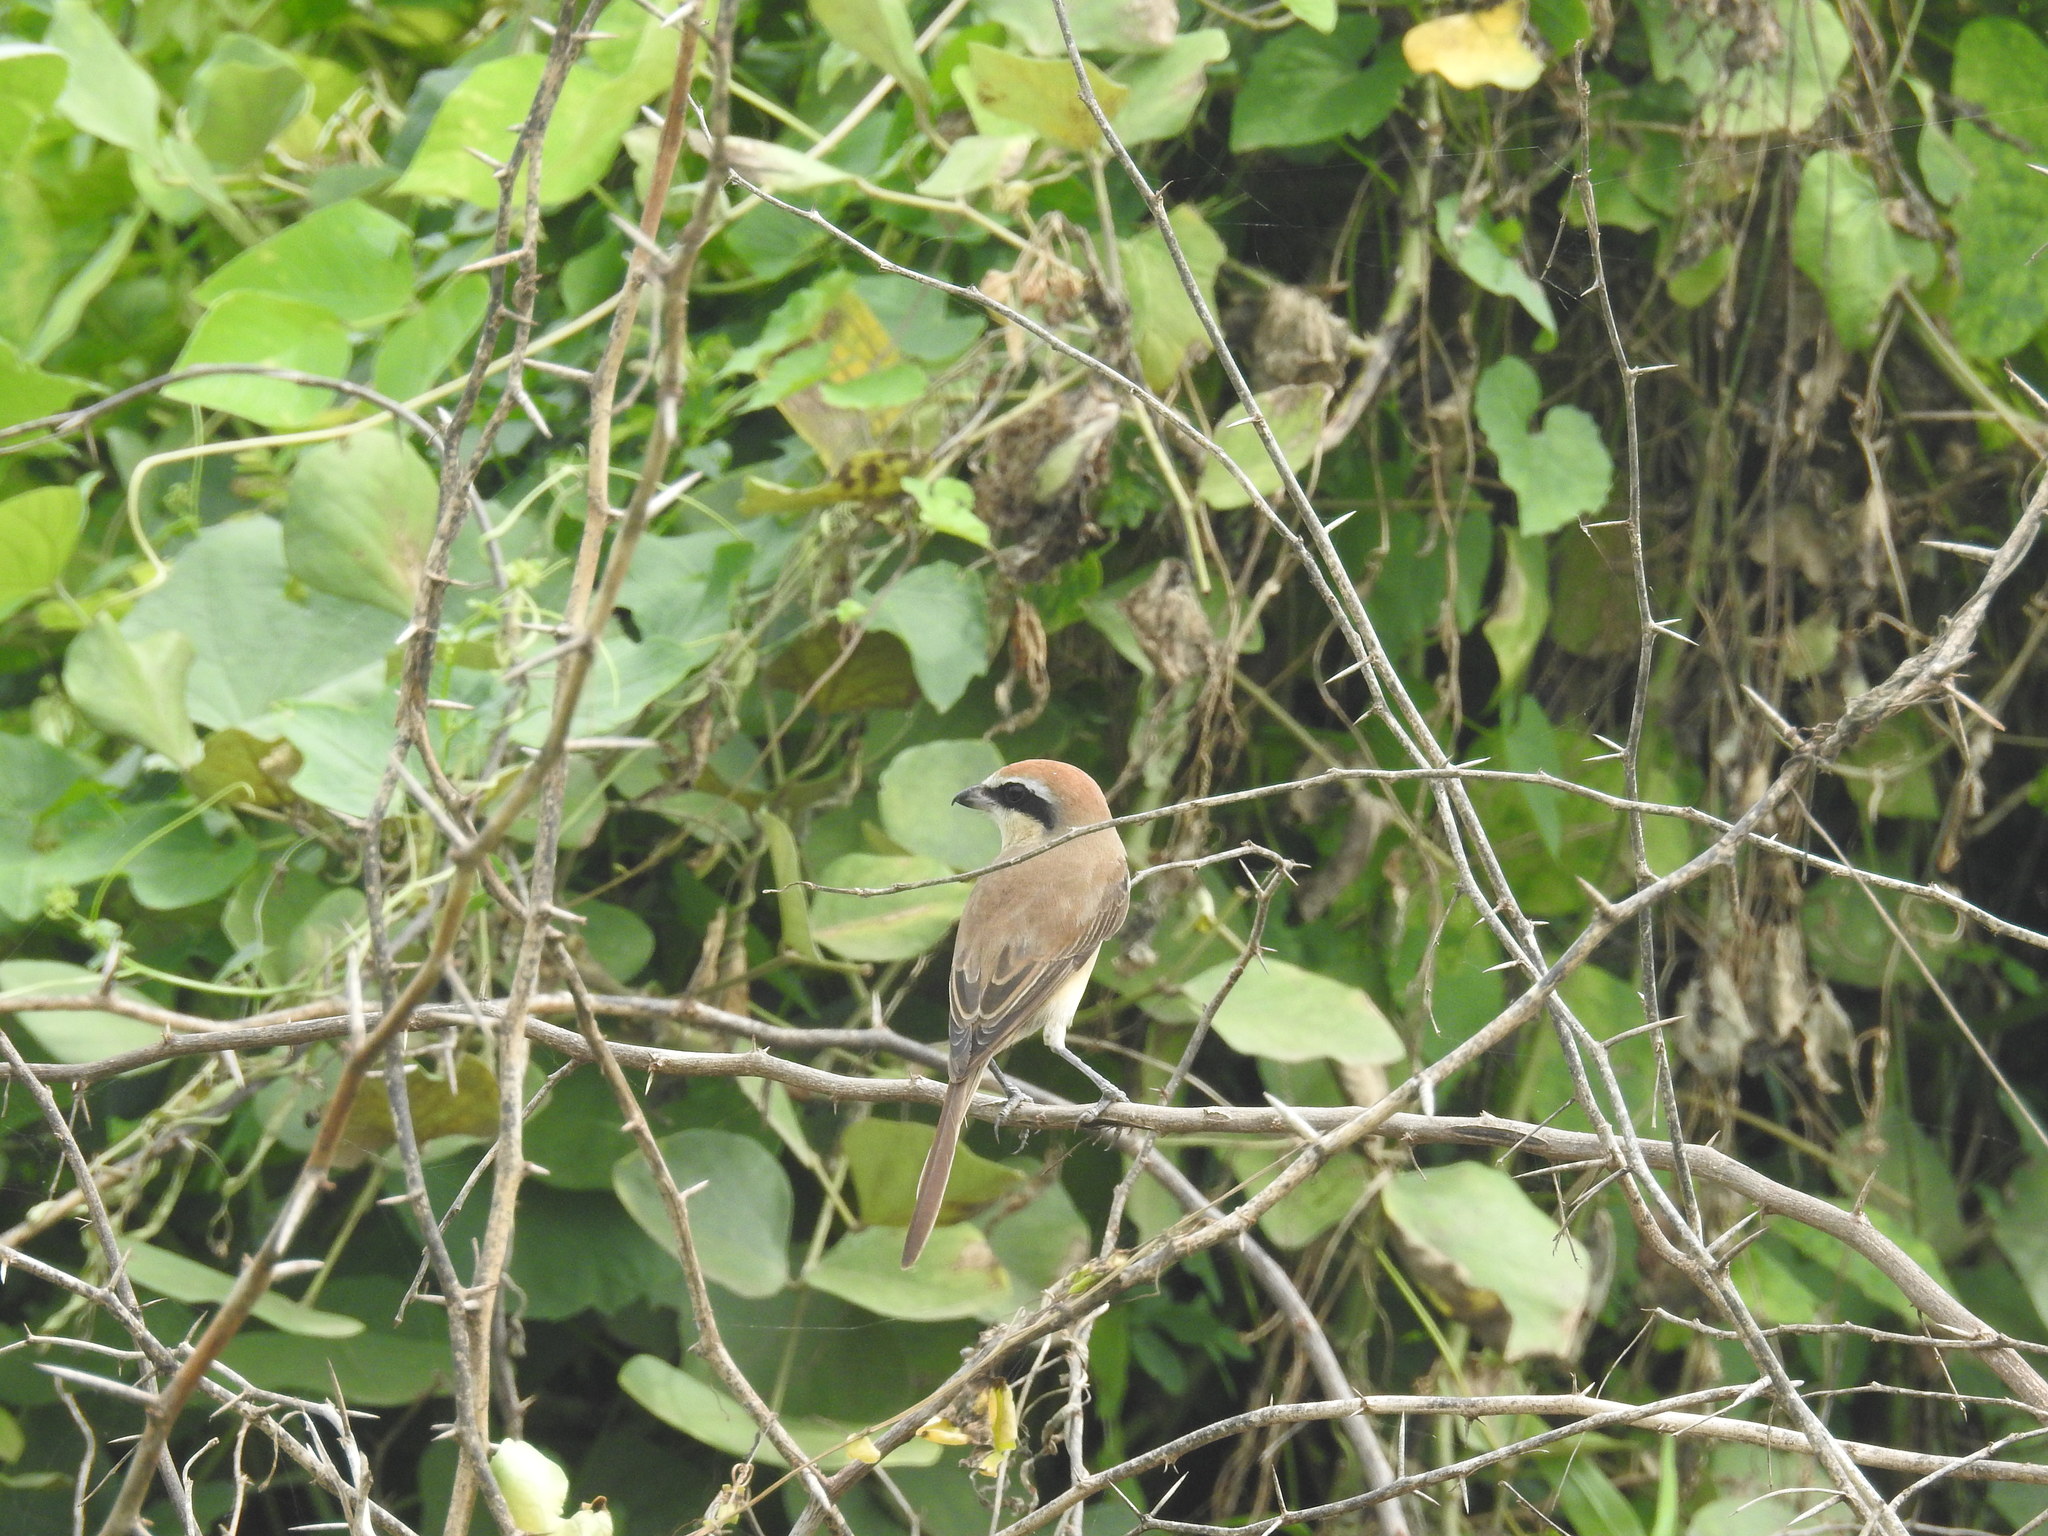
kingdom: Animalia
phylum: Chordata
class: Aves
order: Passeriformes
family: Laniidae
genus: Lanius
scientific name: Lanius cristatus
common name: Brown shrike
